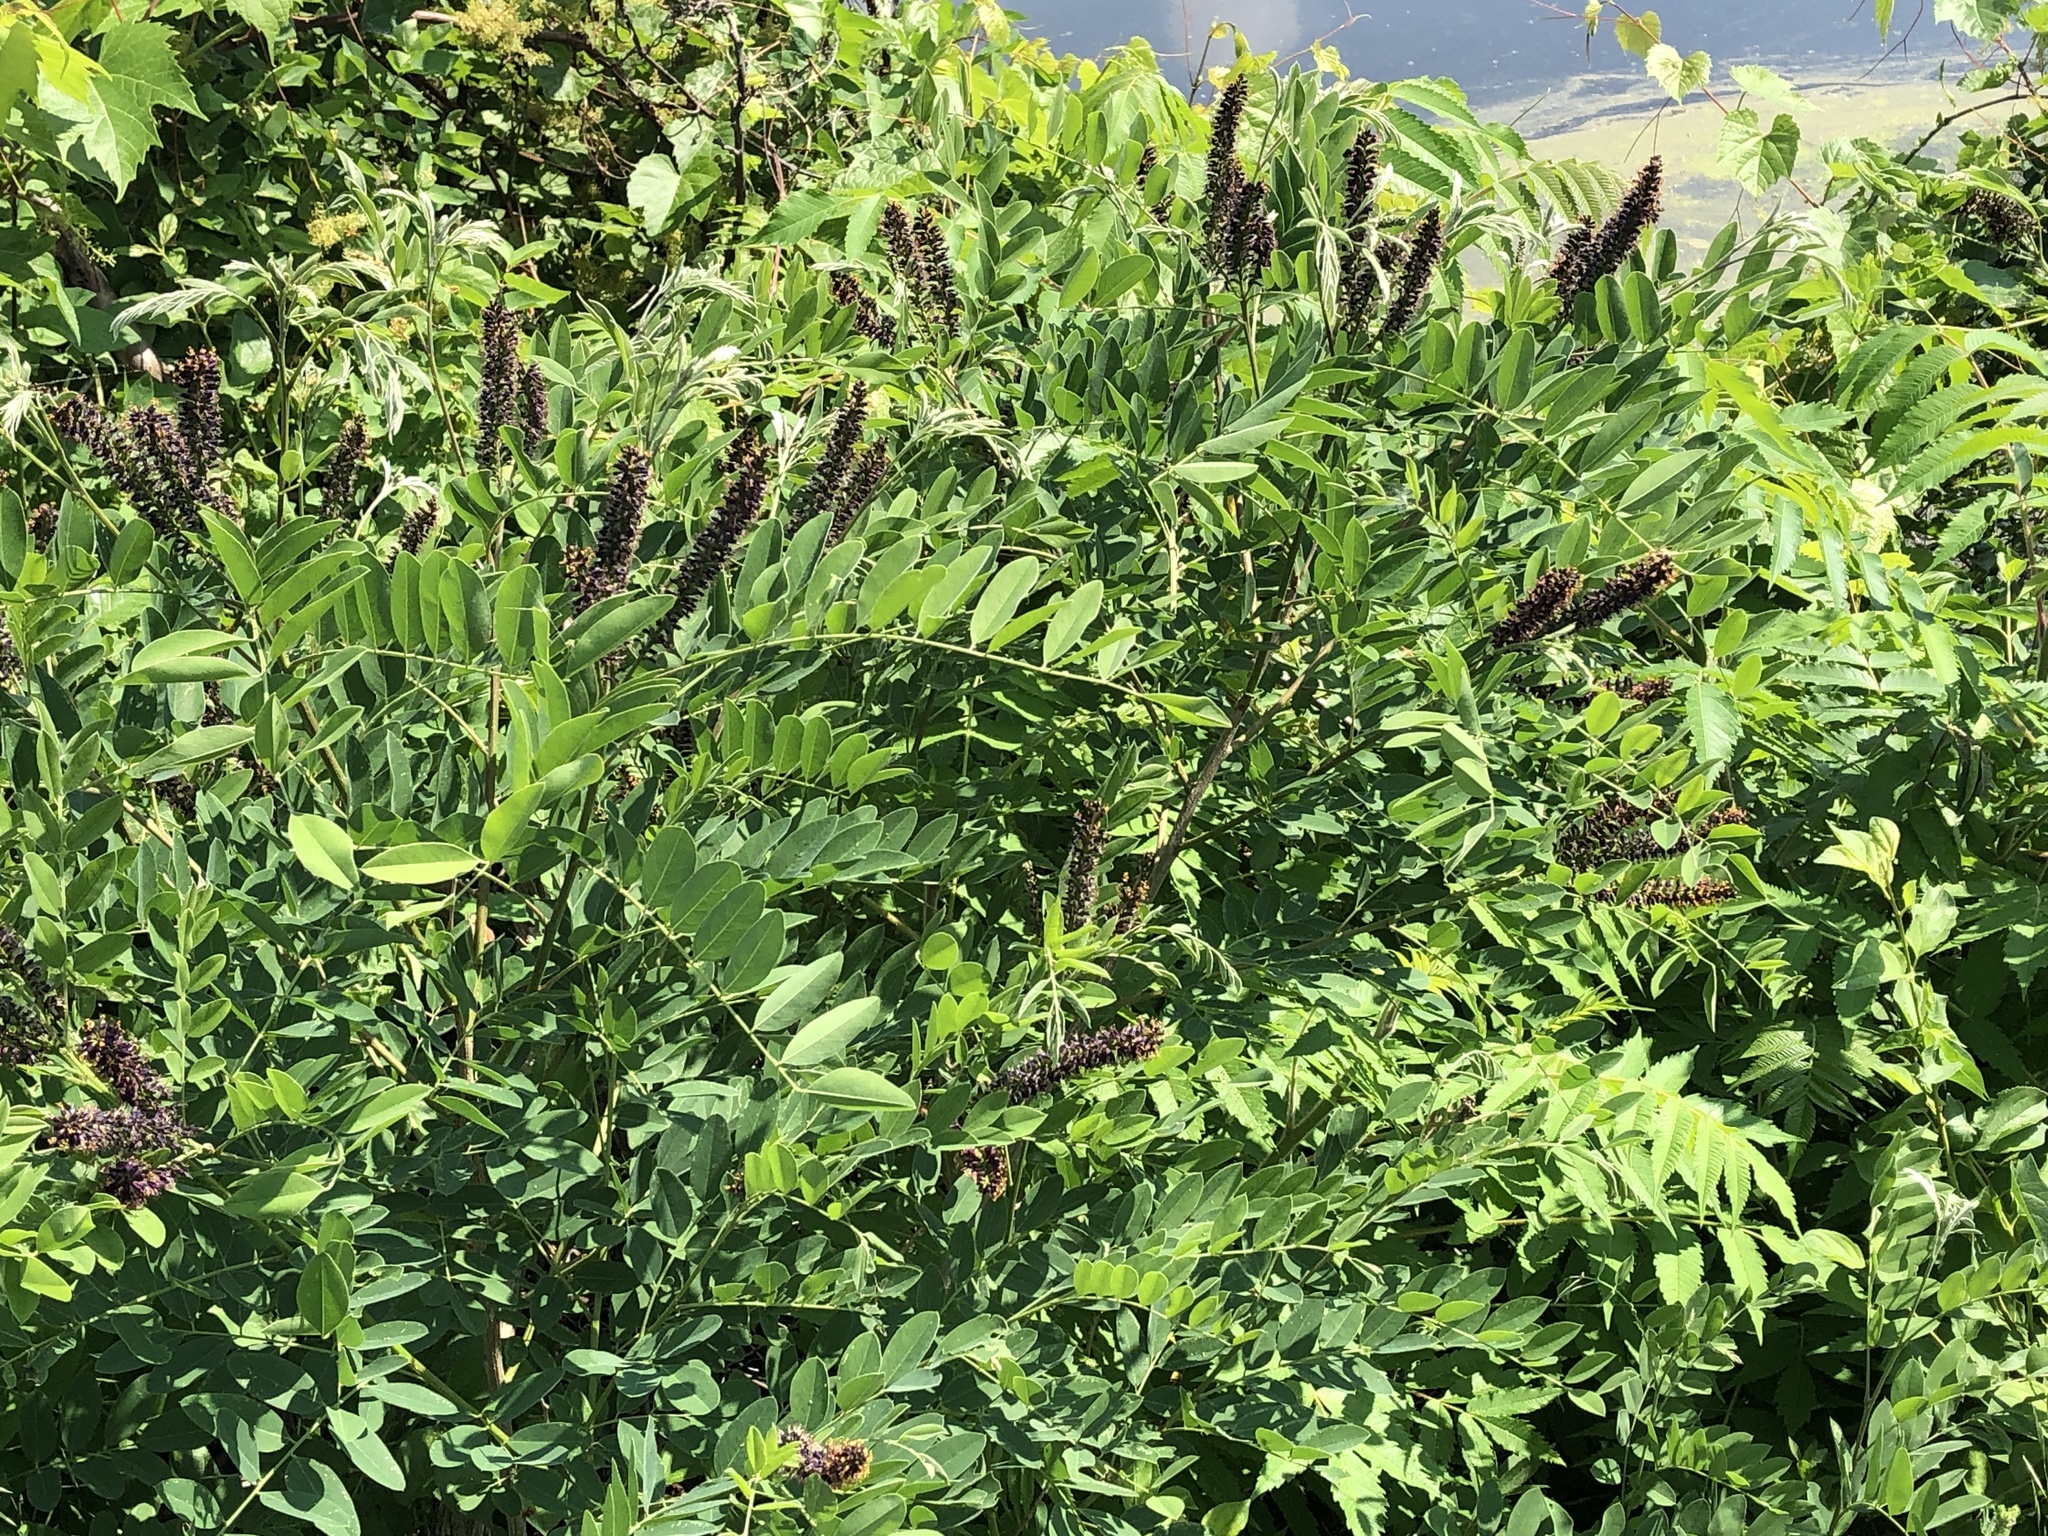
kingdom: Plantae
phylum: Tracheophyta
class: Magnoliopsida
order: Fabales
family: Fabaceae
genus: Amorpha
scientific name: Amorpha fruticosa
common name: False indigo
